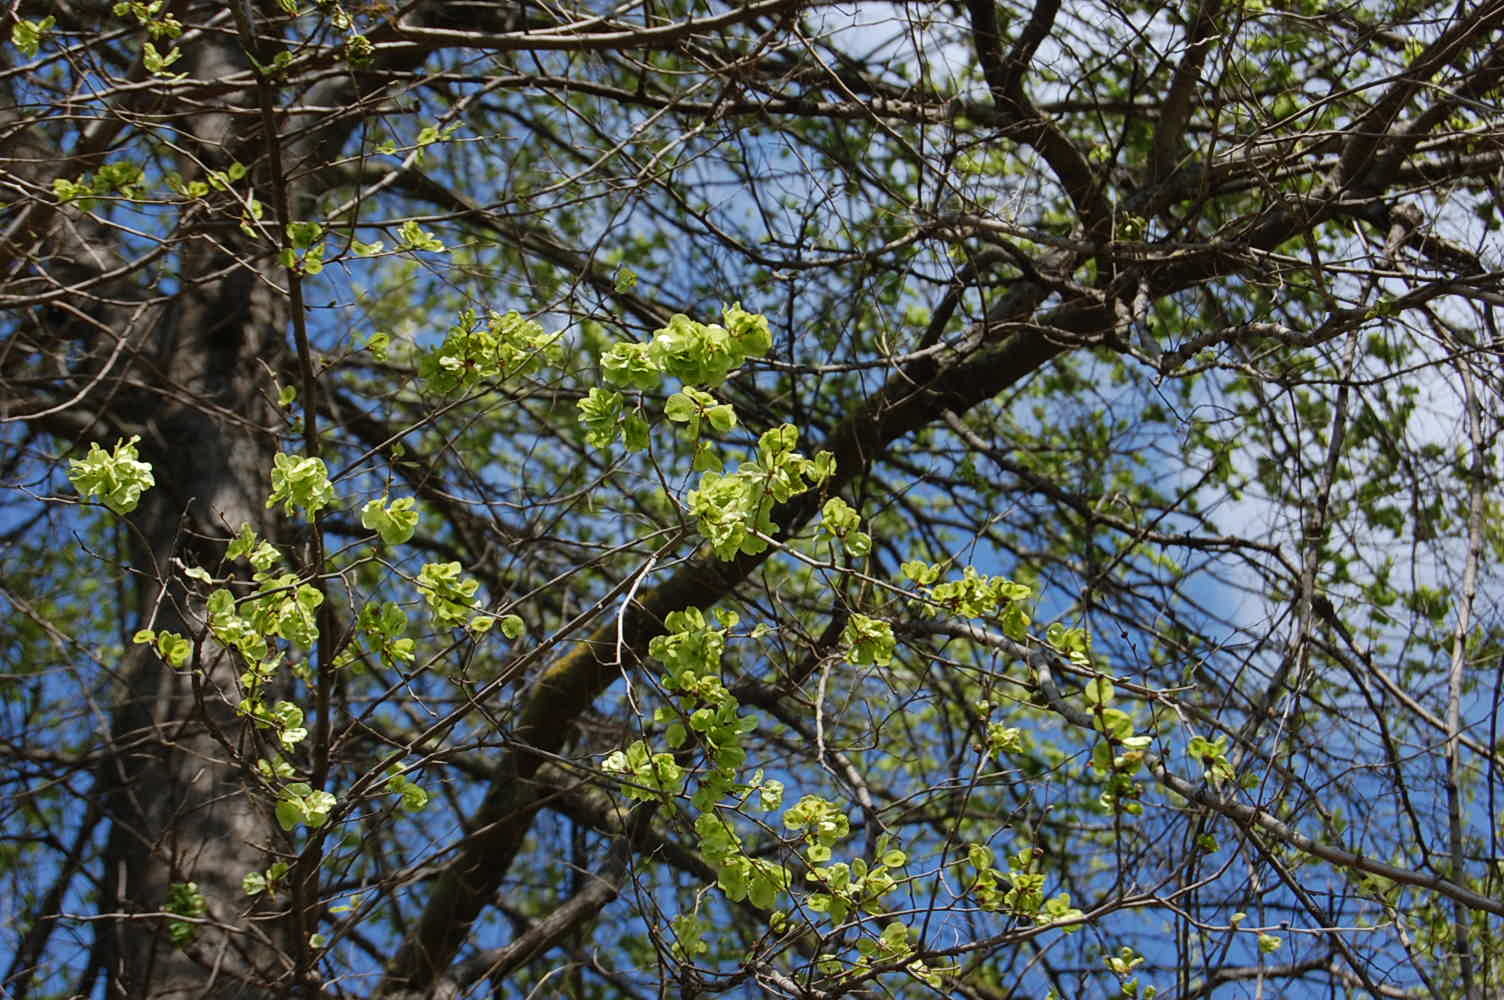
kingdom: Plantae
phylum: Tracheophyta
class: Magnoliopsida
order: Rosales
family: Ulmaceae
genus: Ulmus
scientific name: Ulmus minor
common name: Small-leaved elm
